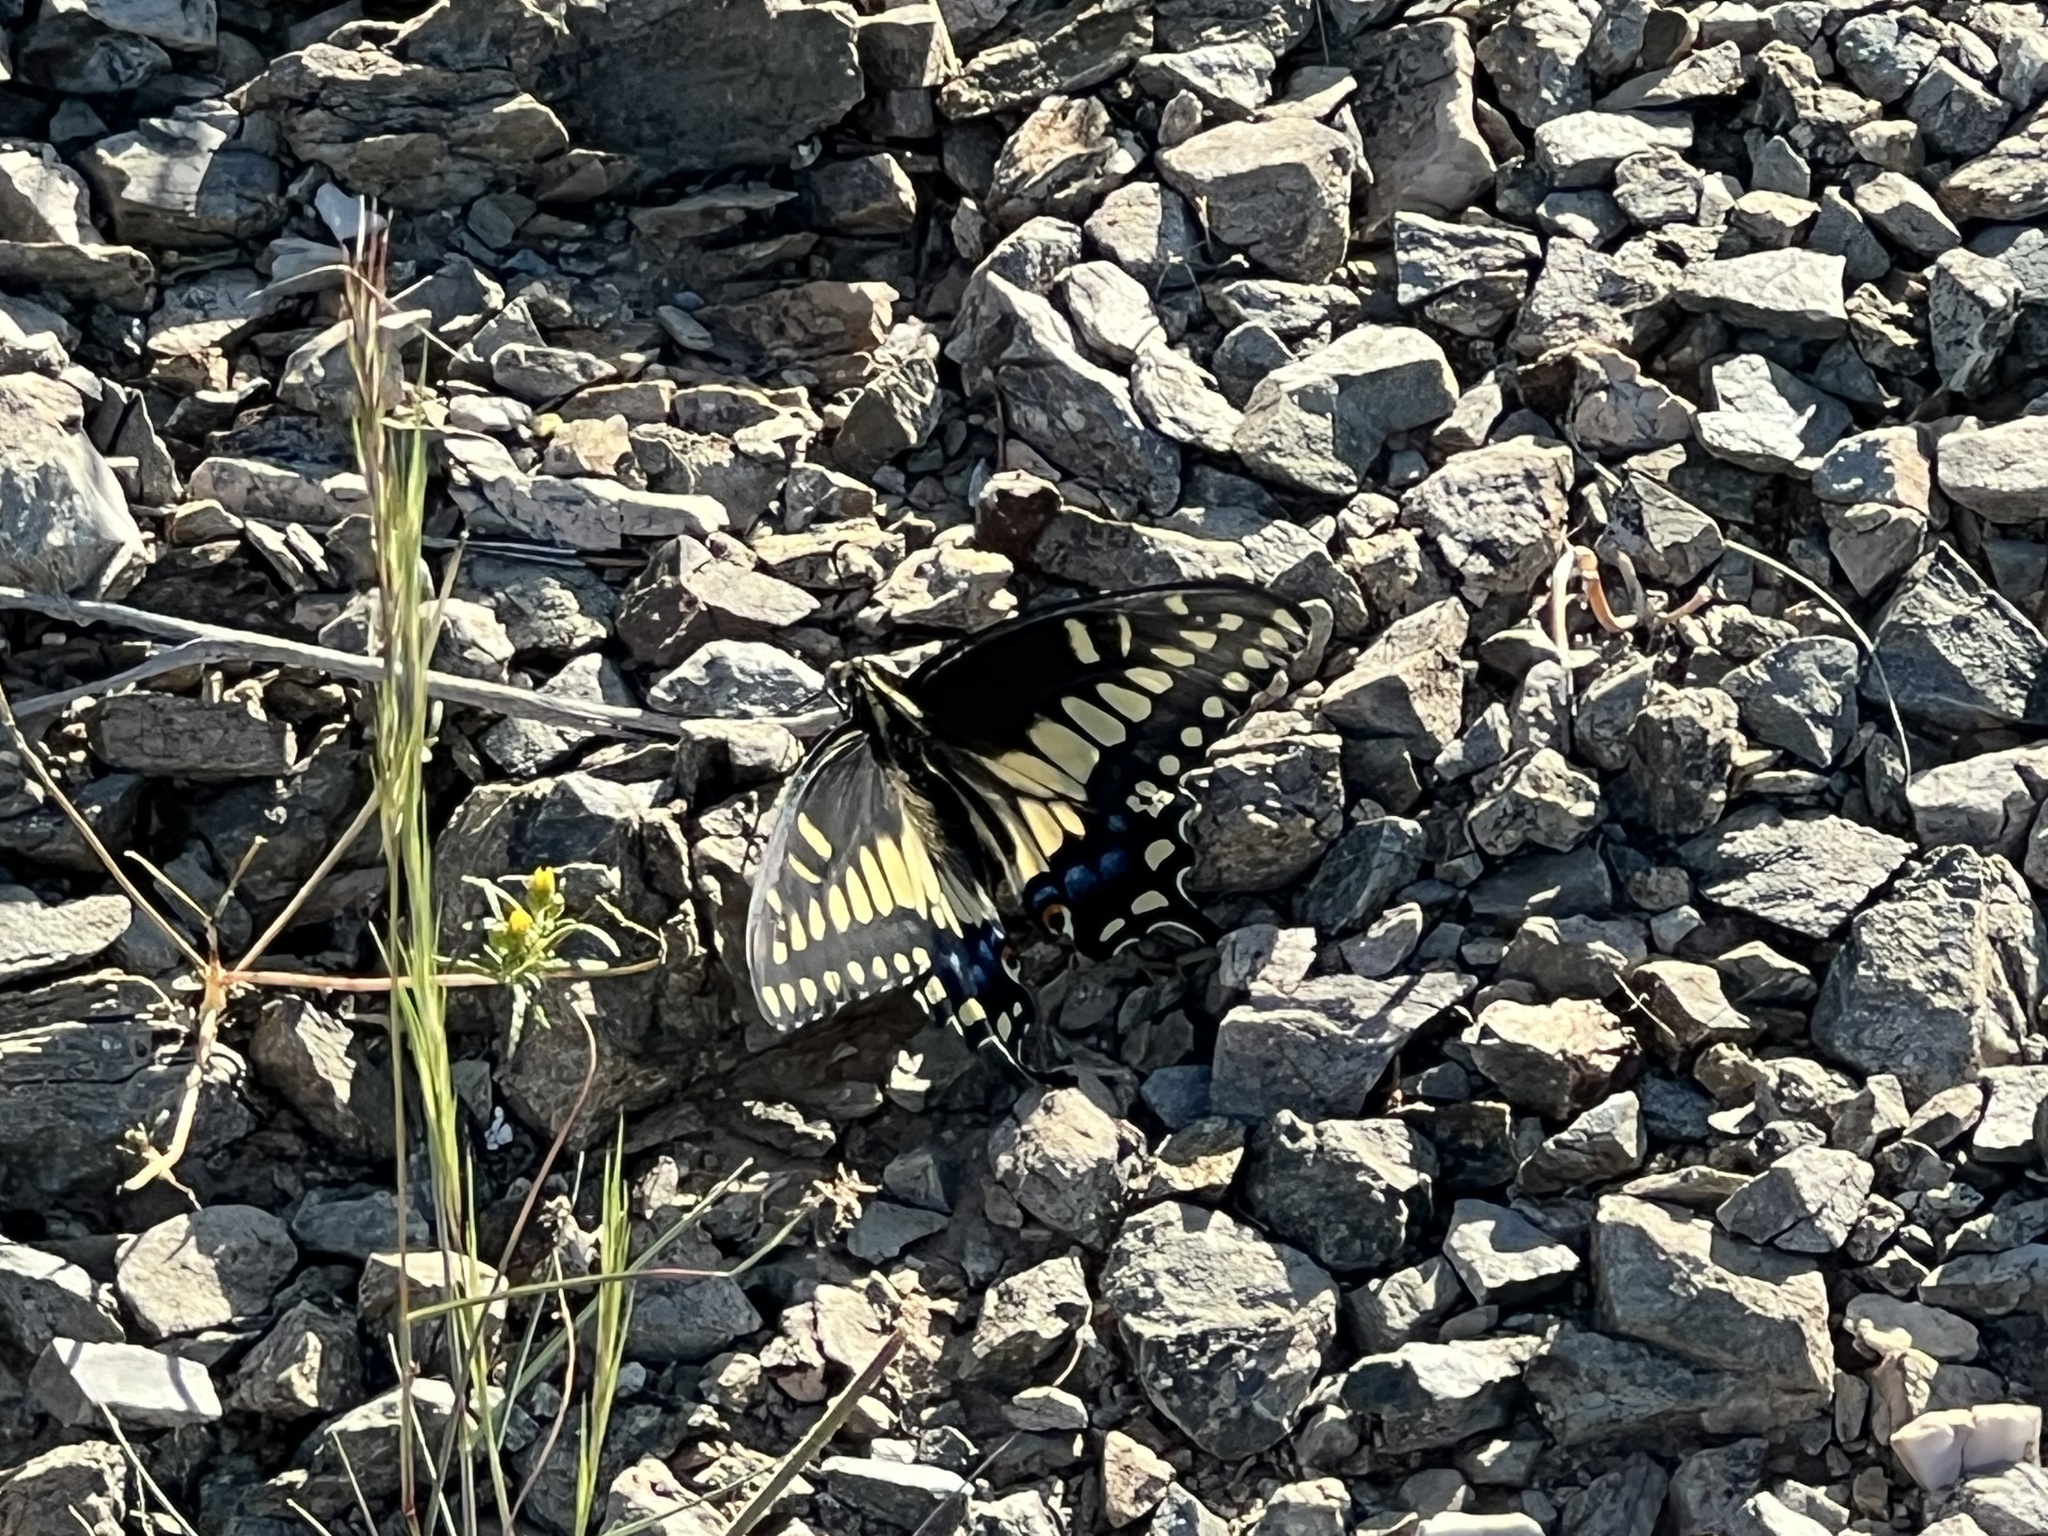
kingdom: Animalia
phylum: Arthropoda
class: Insecta
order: Lepidoptera
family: Papilionidae
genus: Papilio
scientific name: Papilio polyxenes
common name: Black swallowtail
